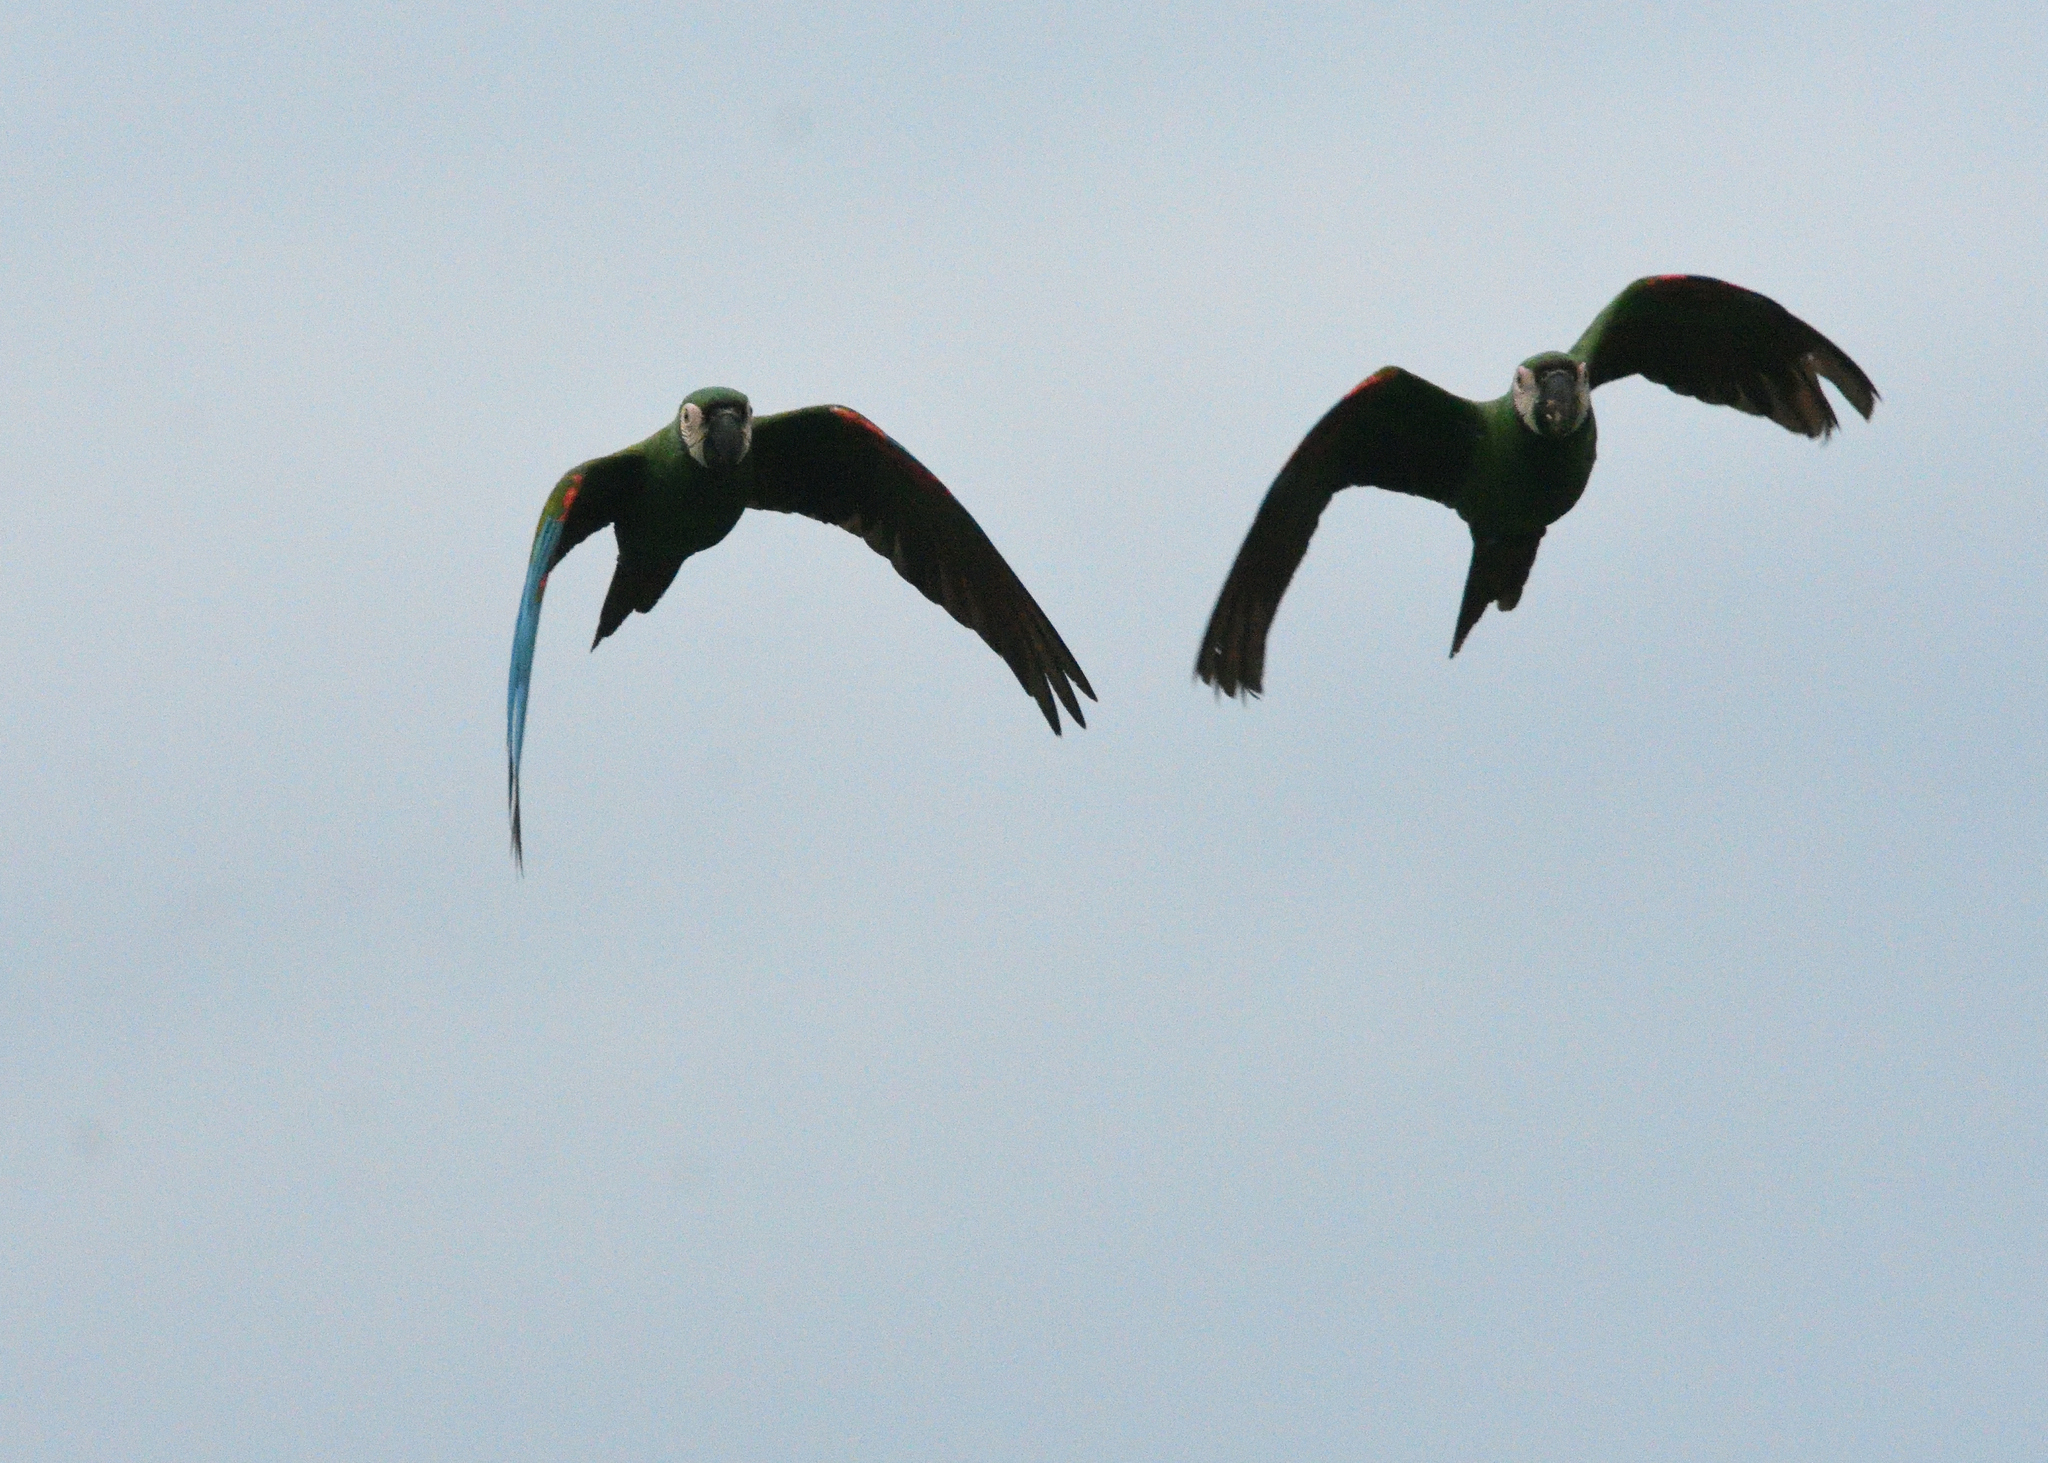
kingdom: Animalia
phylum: Chordata
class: Aves
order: Psittaciformes
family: Psittacidae
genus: Ara
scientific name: Ara severus
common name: Chestnut-fronted macaw
